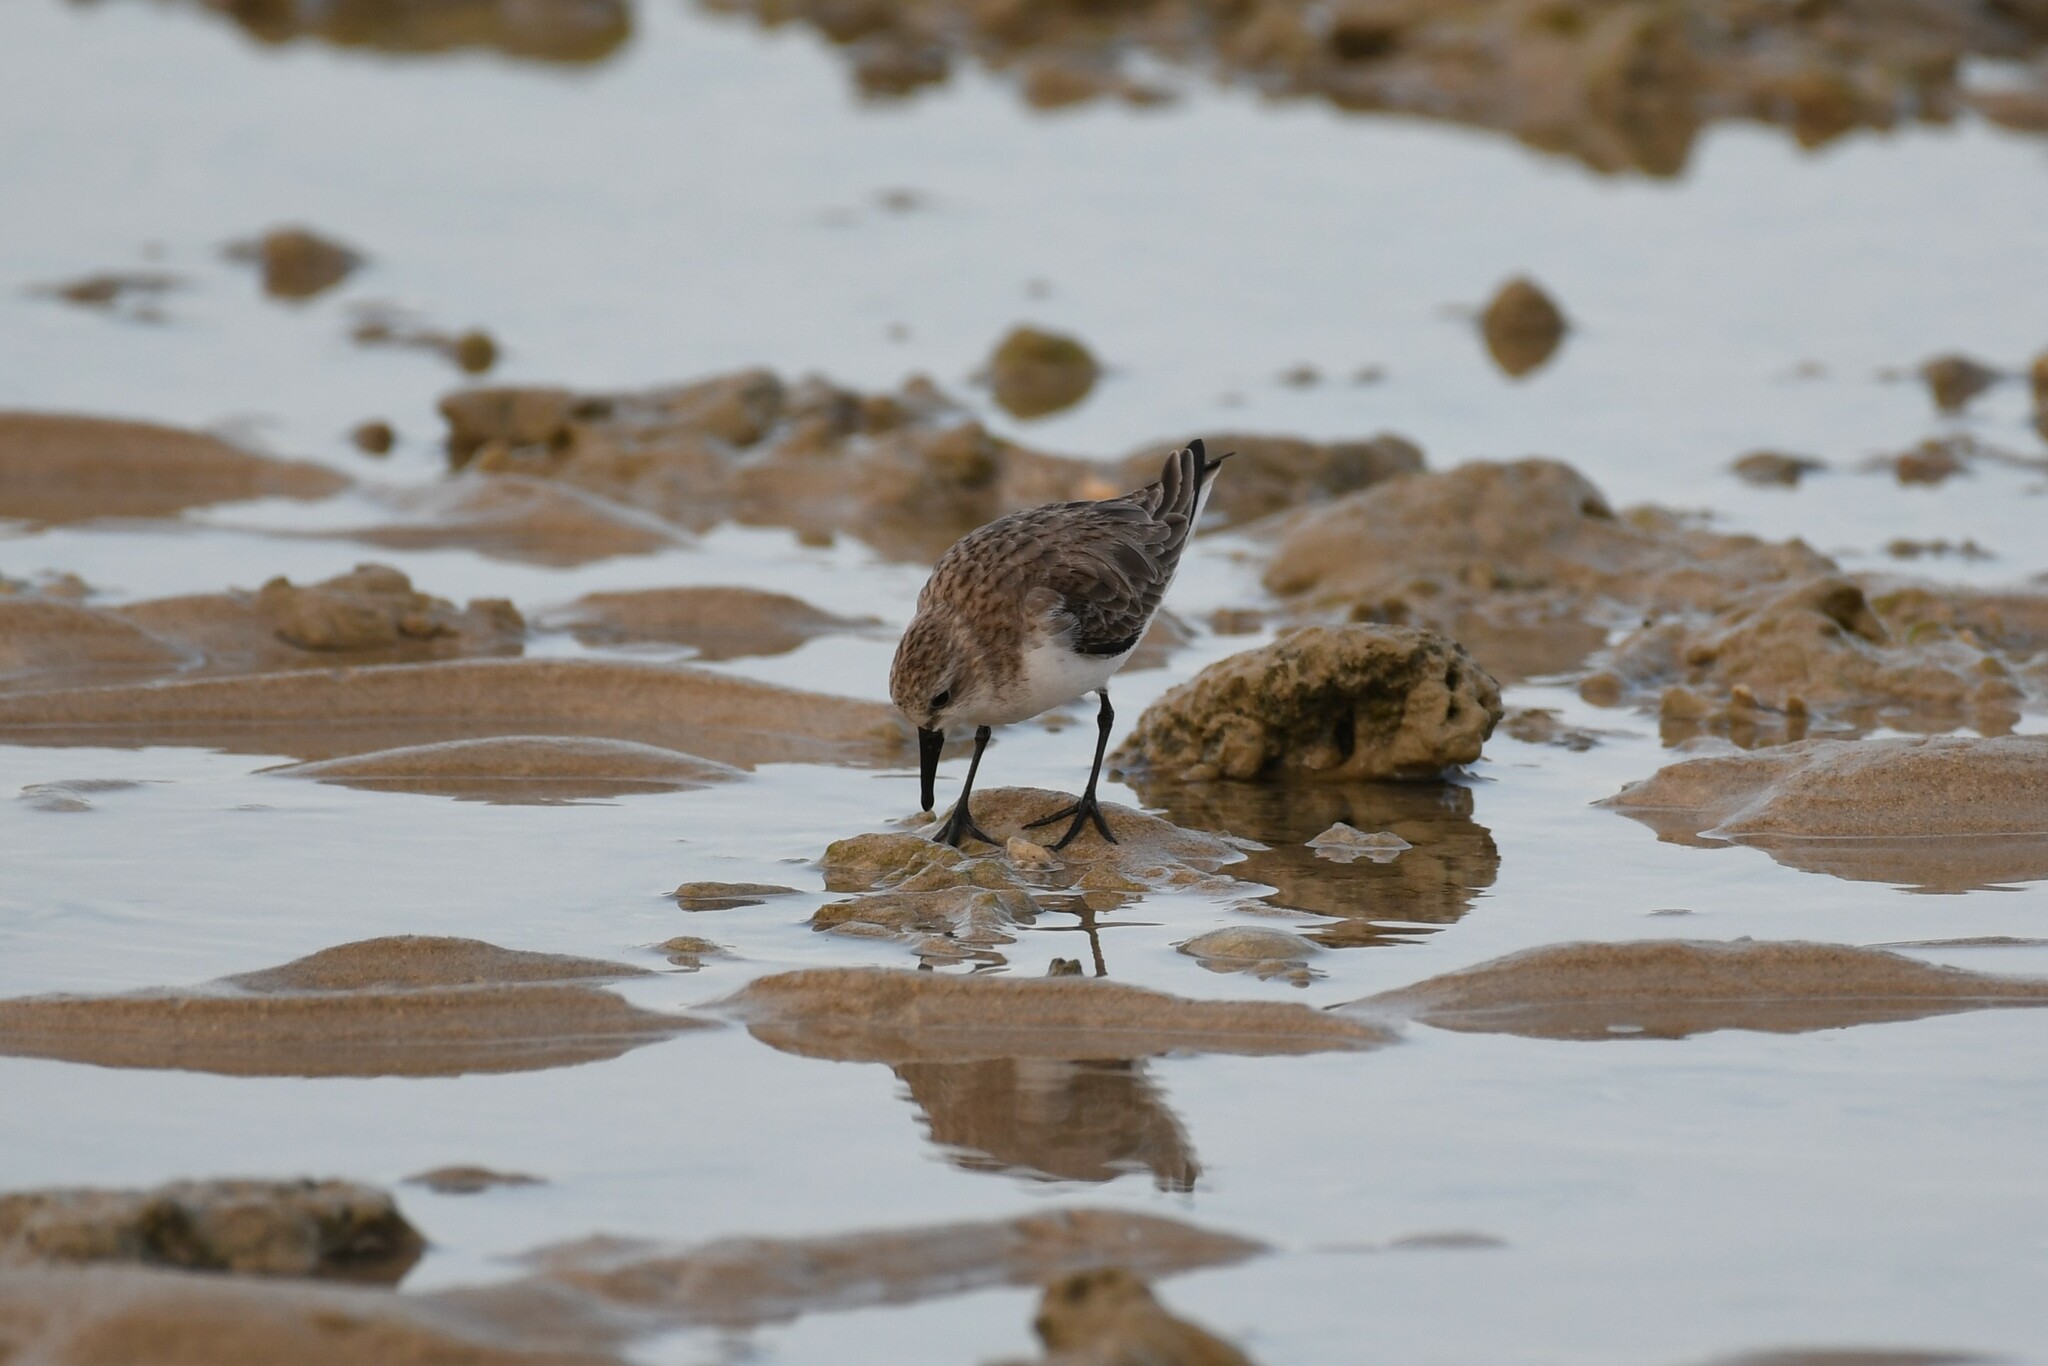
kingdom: Animalia
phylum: Chordata
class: Aves
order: Charadriiformes
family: Scolopacidae
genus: Calidris
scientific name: Calidris ruficollis
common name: Red-necked stint
